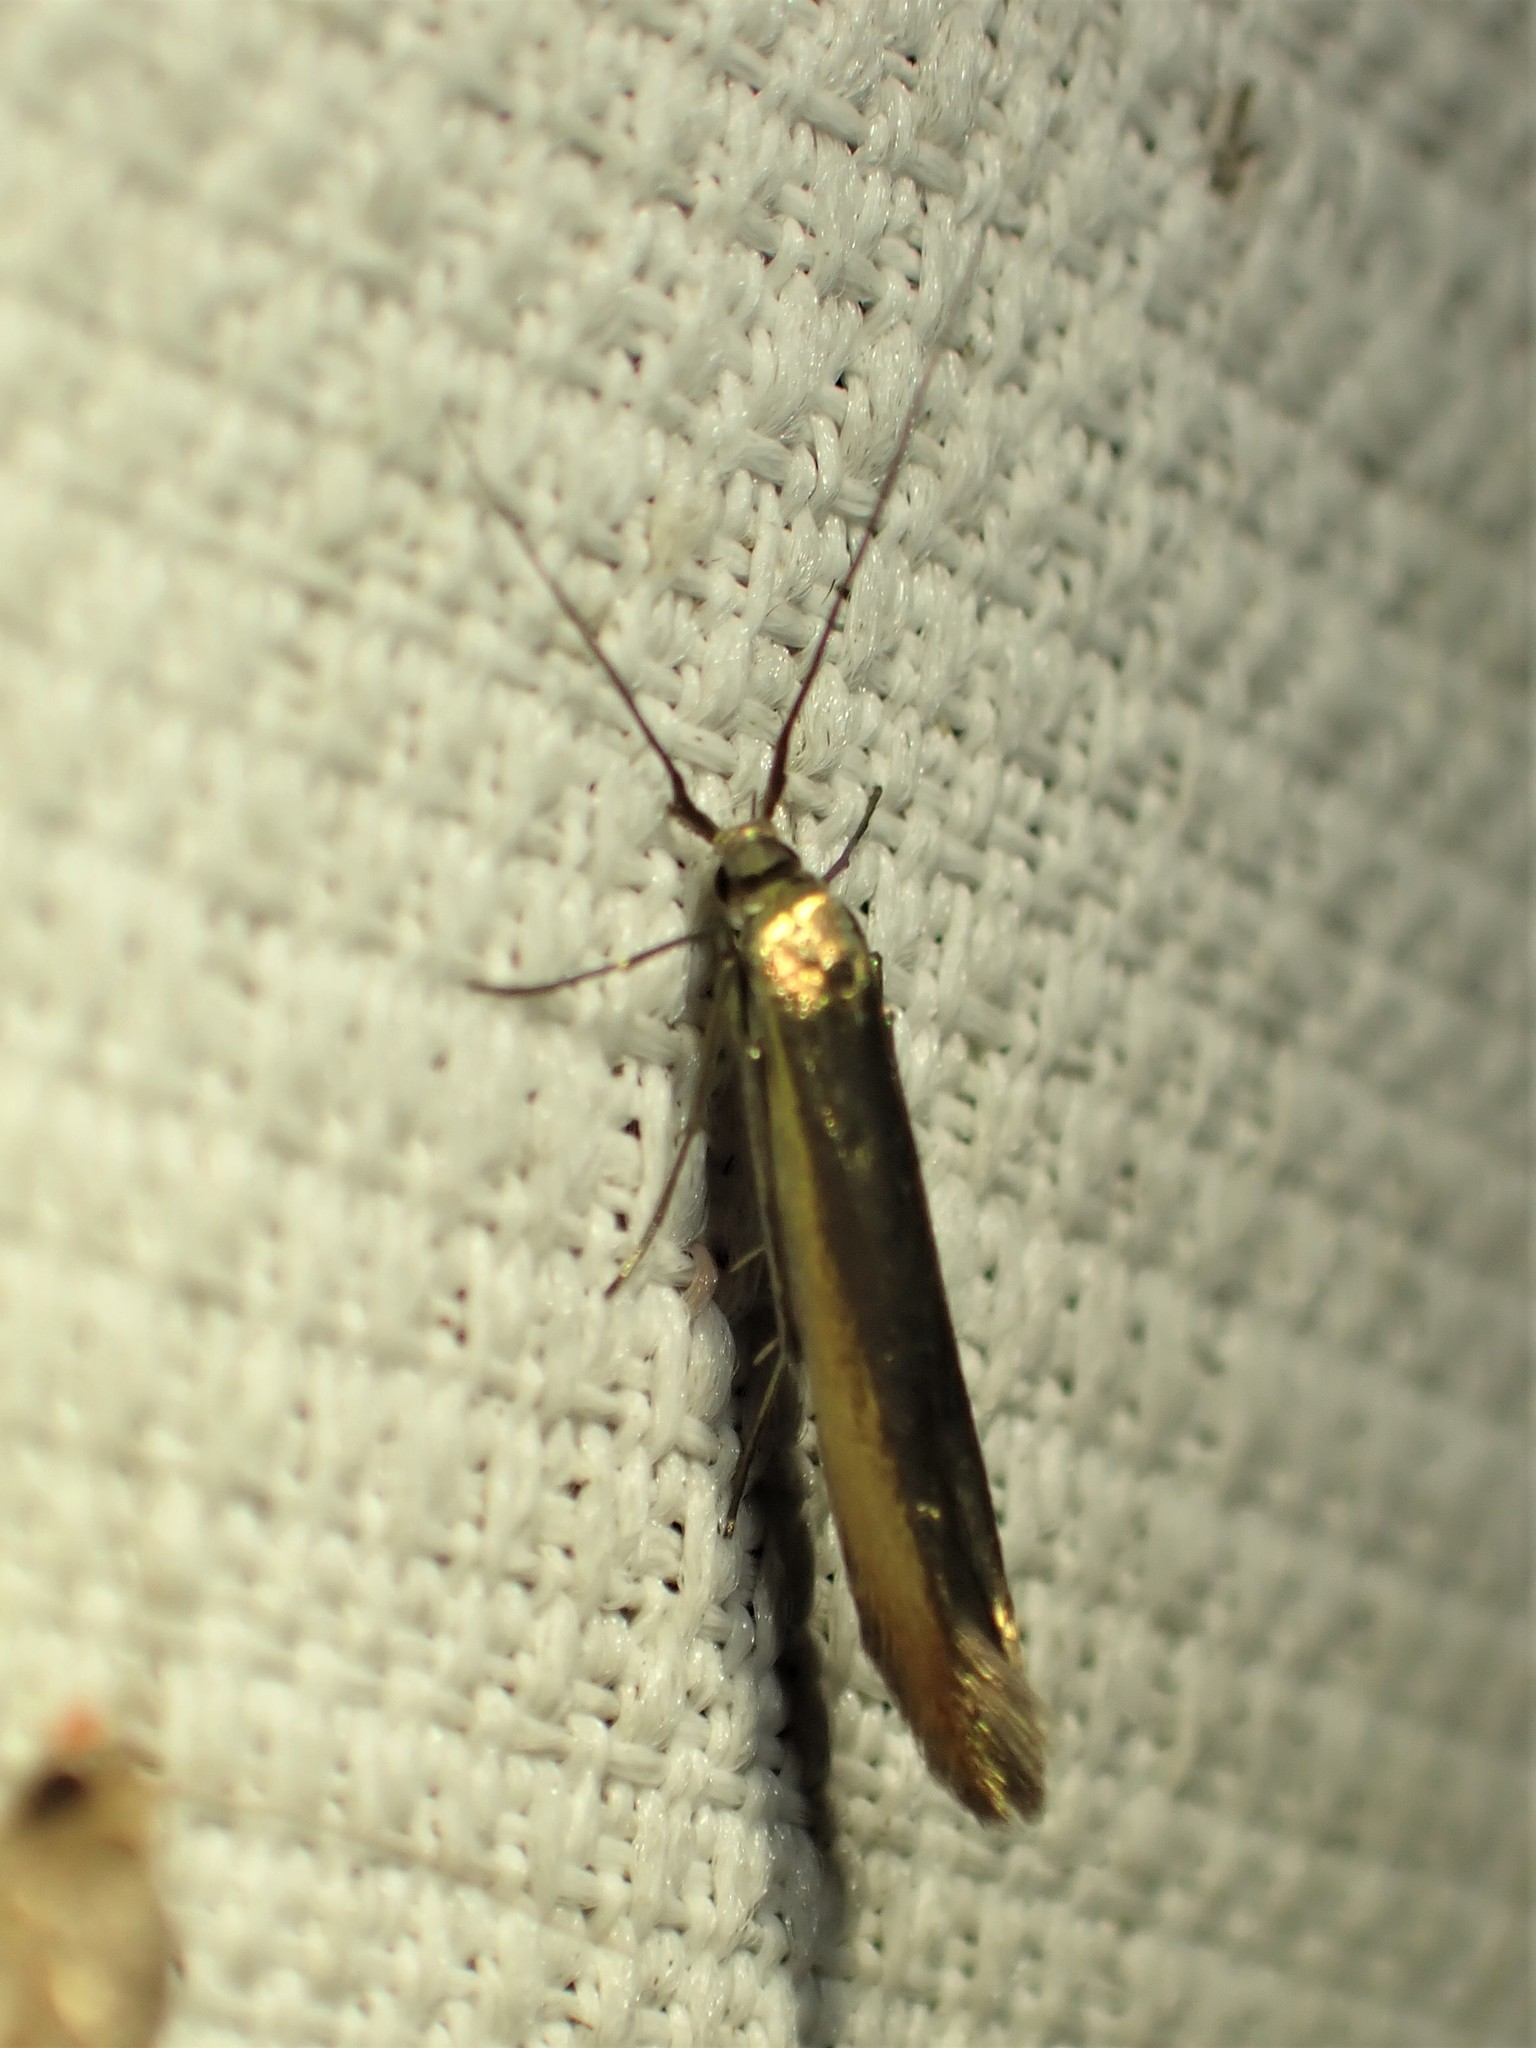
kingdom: Animalia
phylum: Arthropoda
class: Insecta
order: Lepidoptera
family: Coleophoridae
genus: Coleophora
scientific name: Coleophora trifolii
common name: Large clover case-bearer
